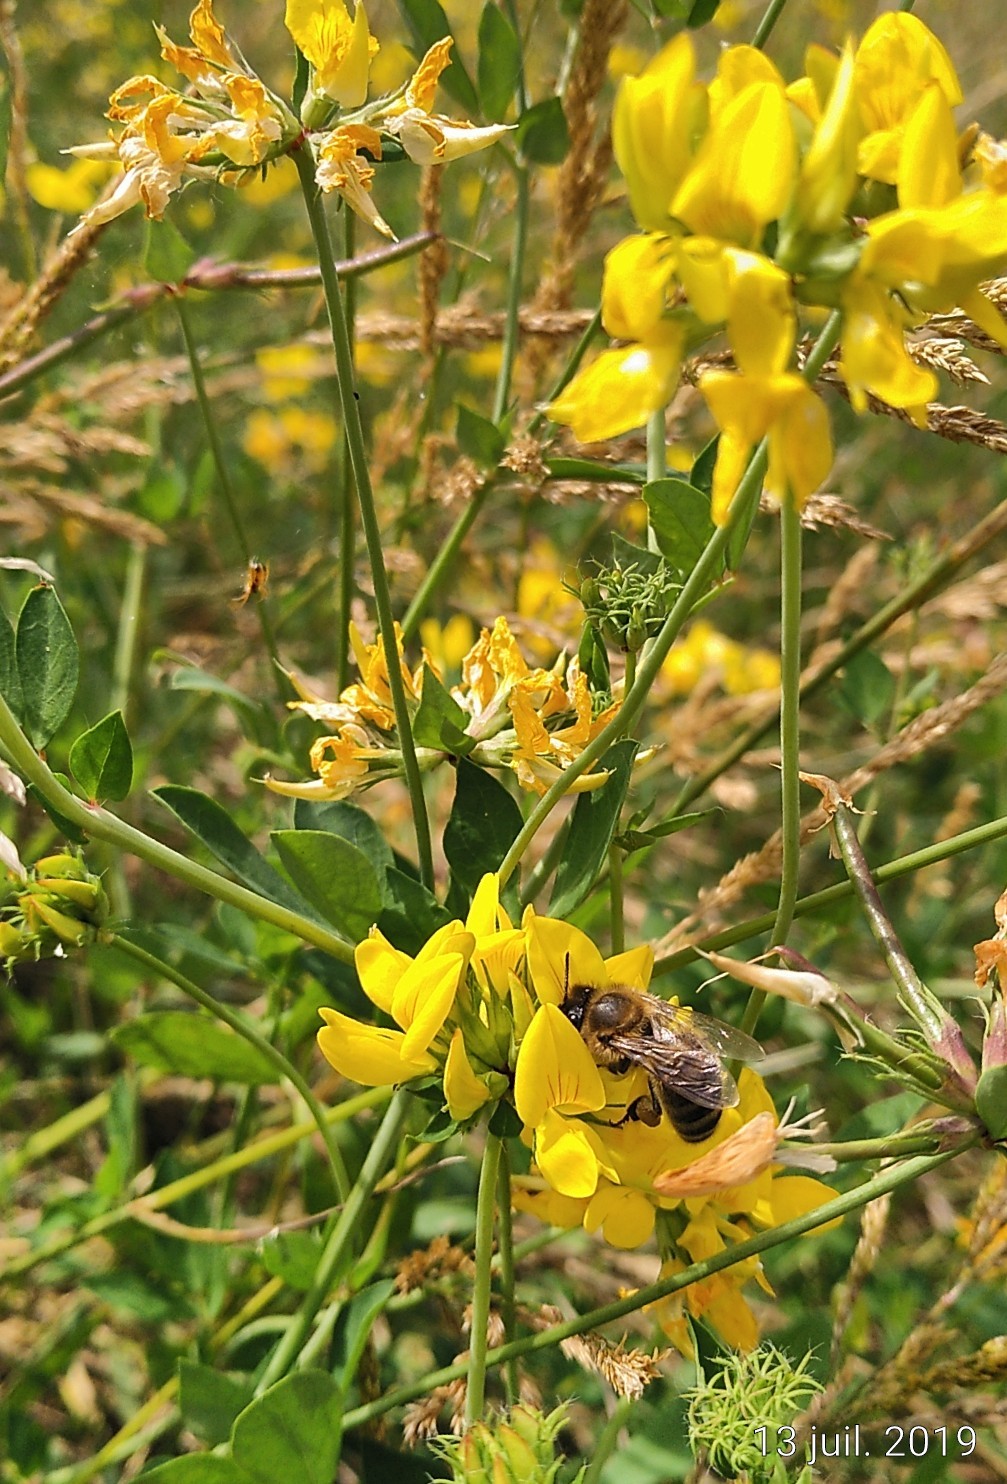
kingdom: Animalia
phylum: Arthropoda
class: Insecta
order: Hymenoptera
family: Apidae
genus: Apis
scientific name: Apis mellifera
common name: Honey bee
